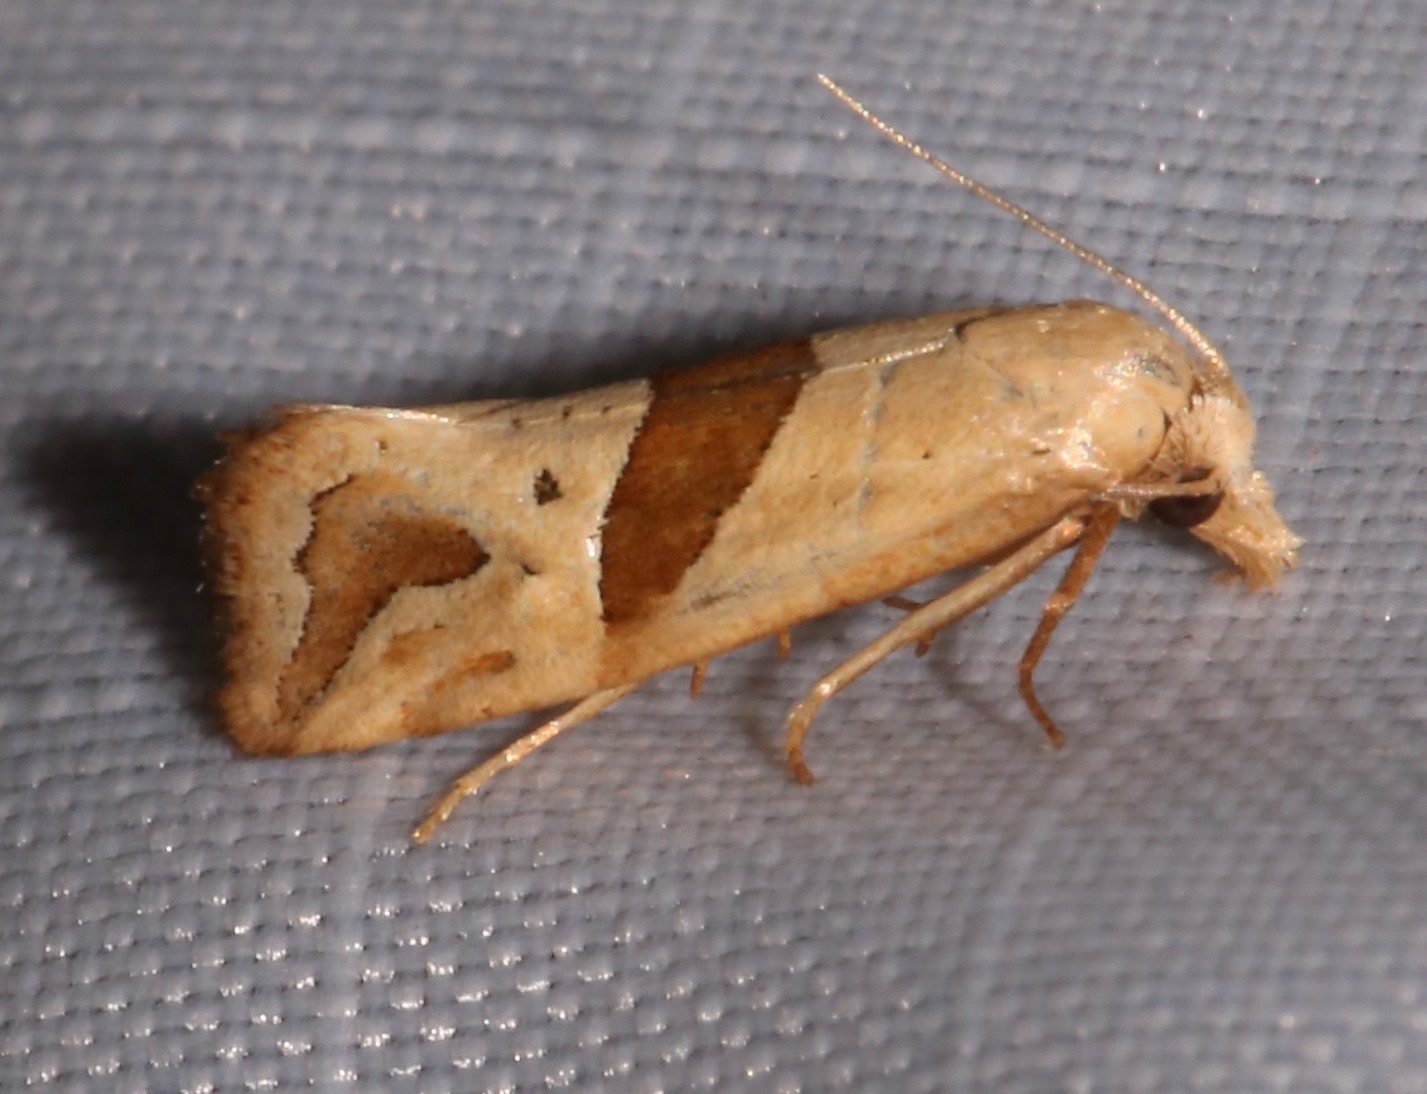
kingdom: Animalia
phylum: Arthropoda
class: Insecta
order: Lepidoptera
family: Tortricidae
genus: Eugnosta
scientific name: Eugnosta sartana
